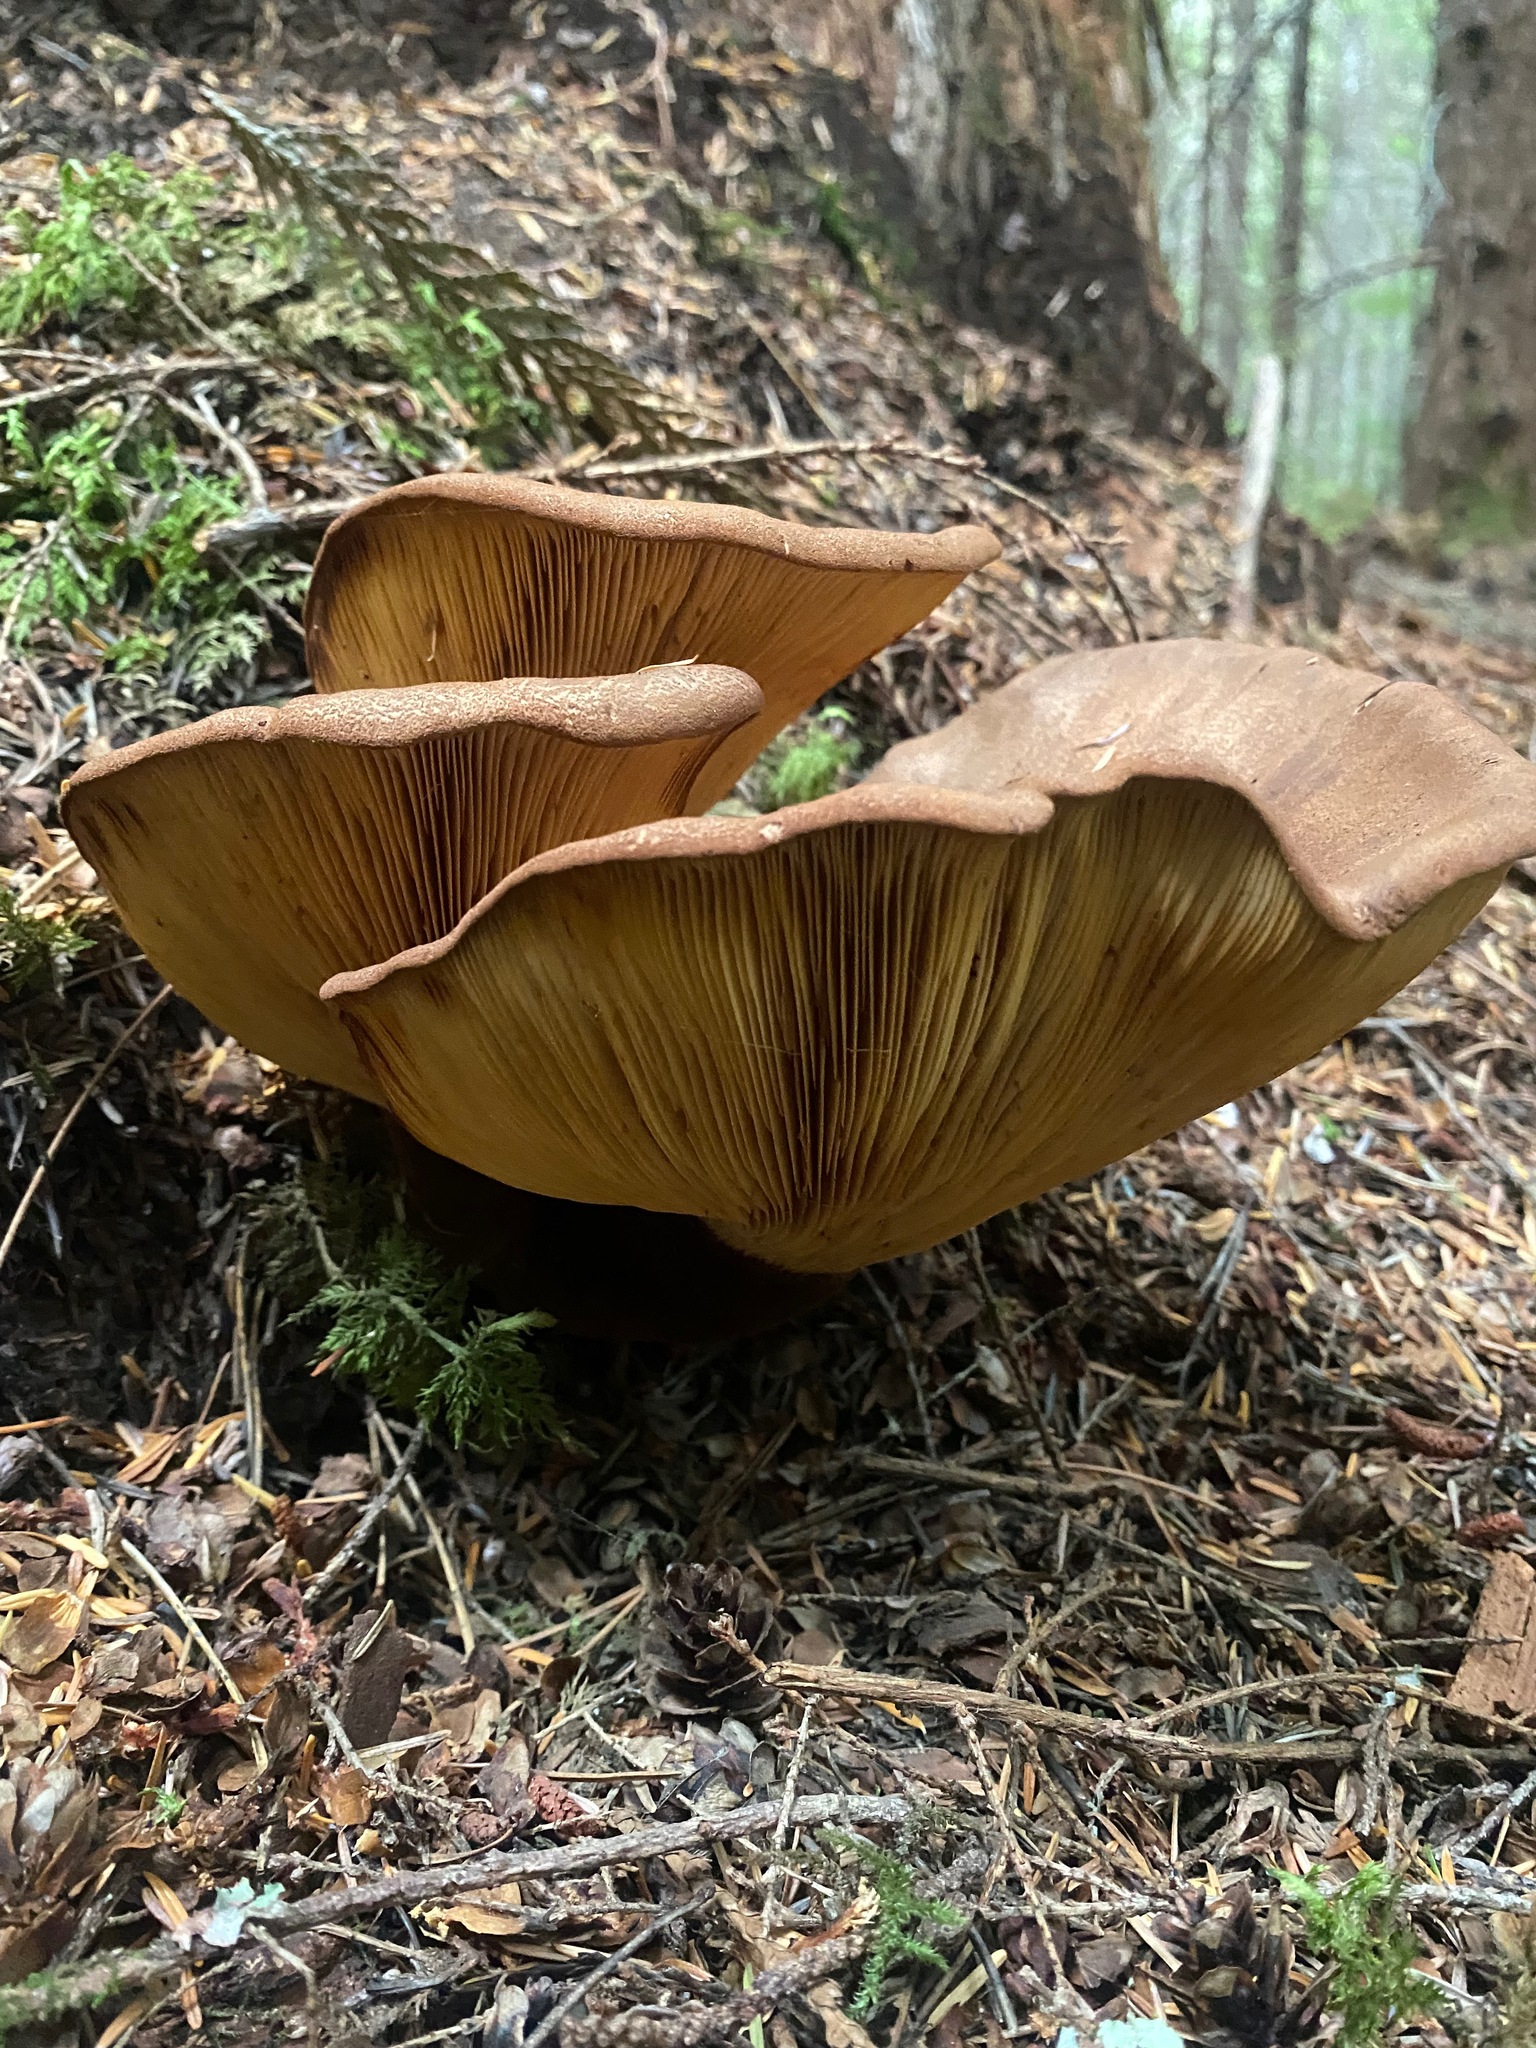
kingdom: Fungi
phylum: Basidiomycota
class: Agaricomycetes
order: Boletales
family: Tapinellaceae
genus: Tapinella
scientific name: Tapinella atrotomentosa
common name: Velvet rollrim
